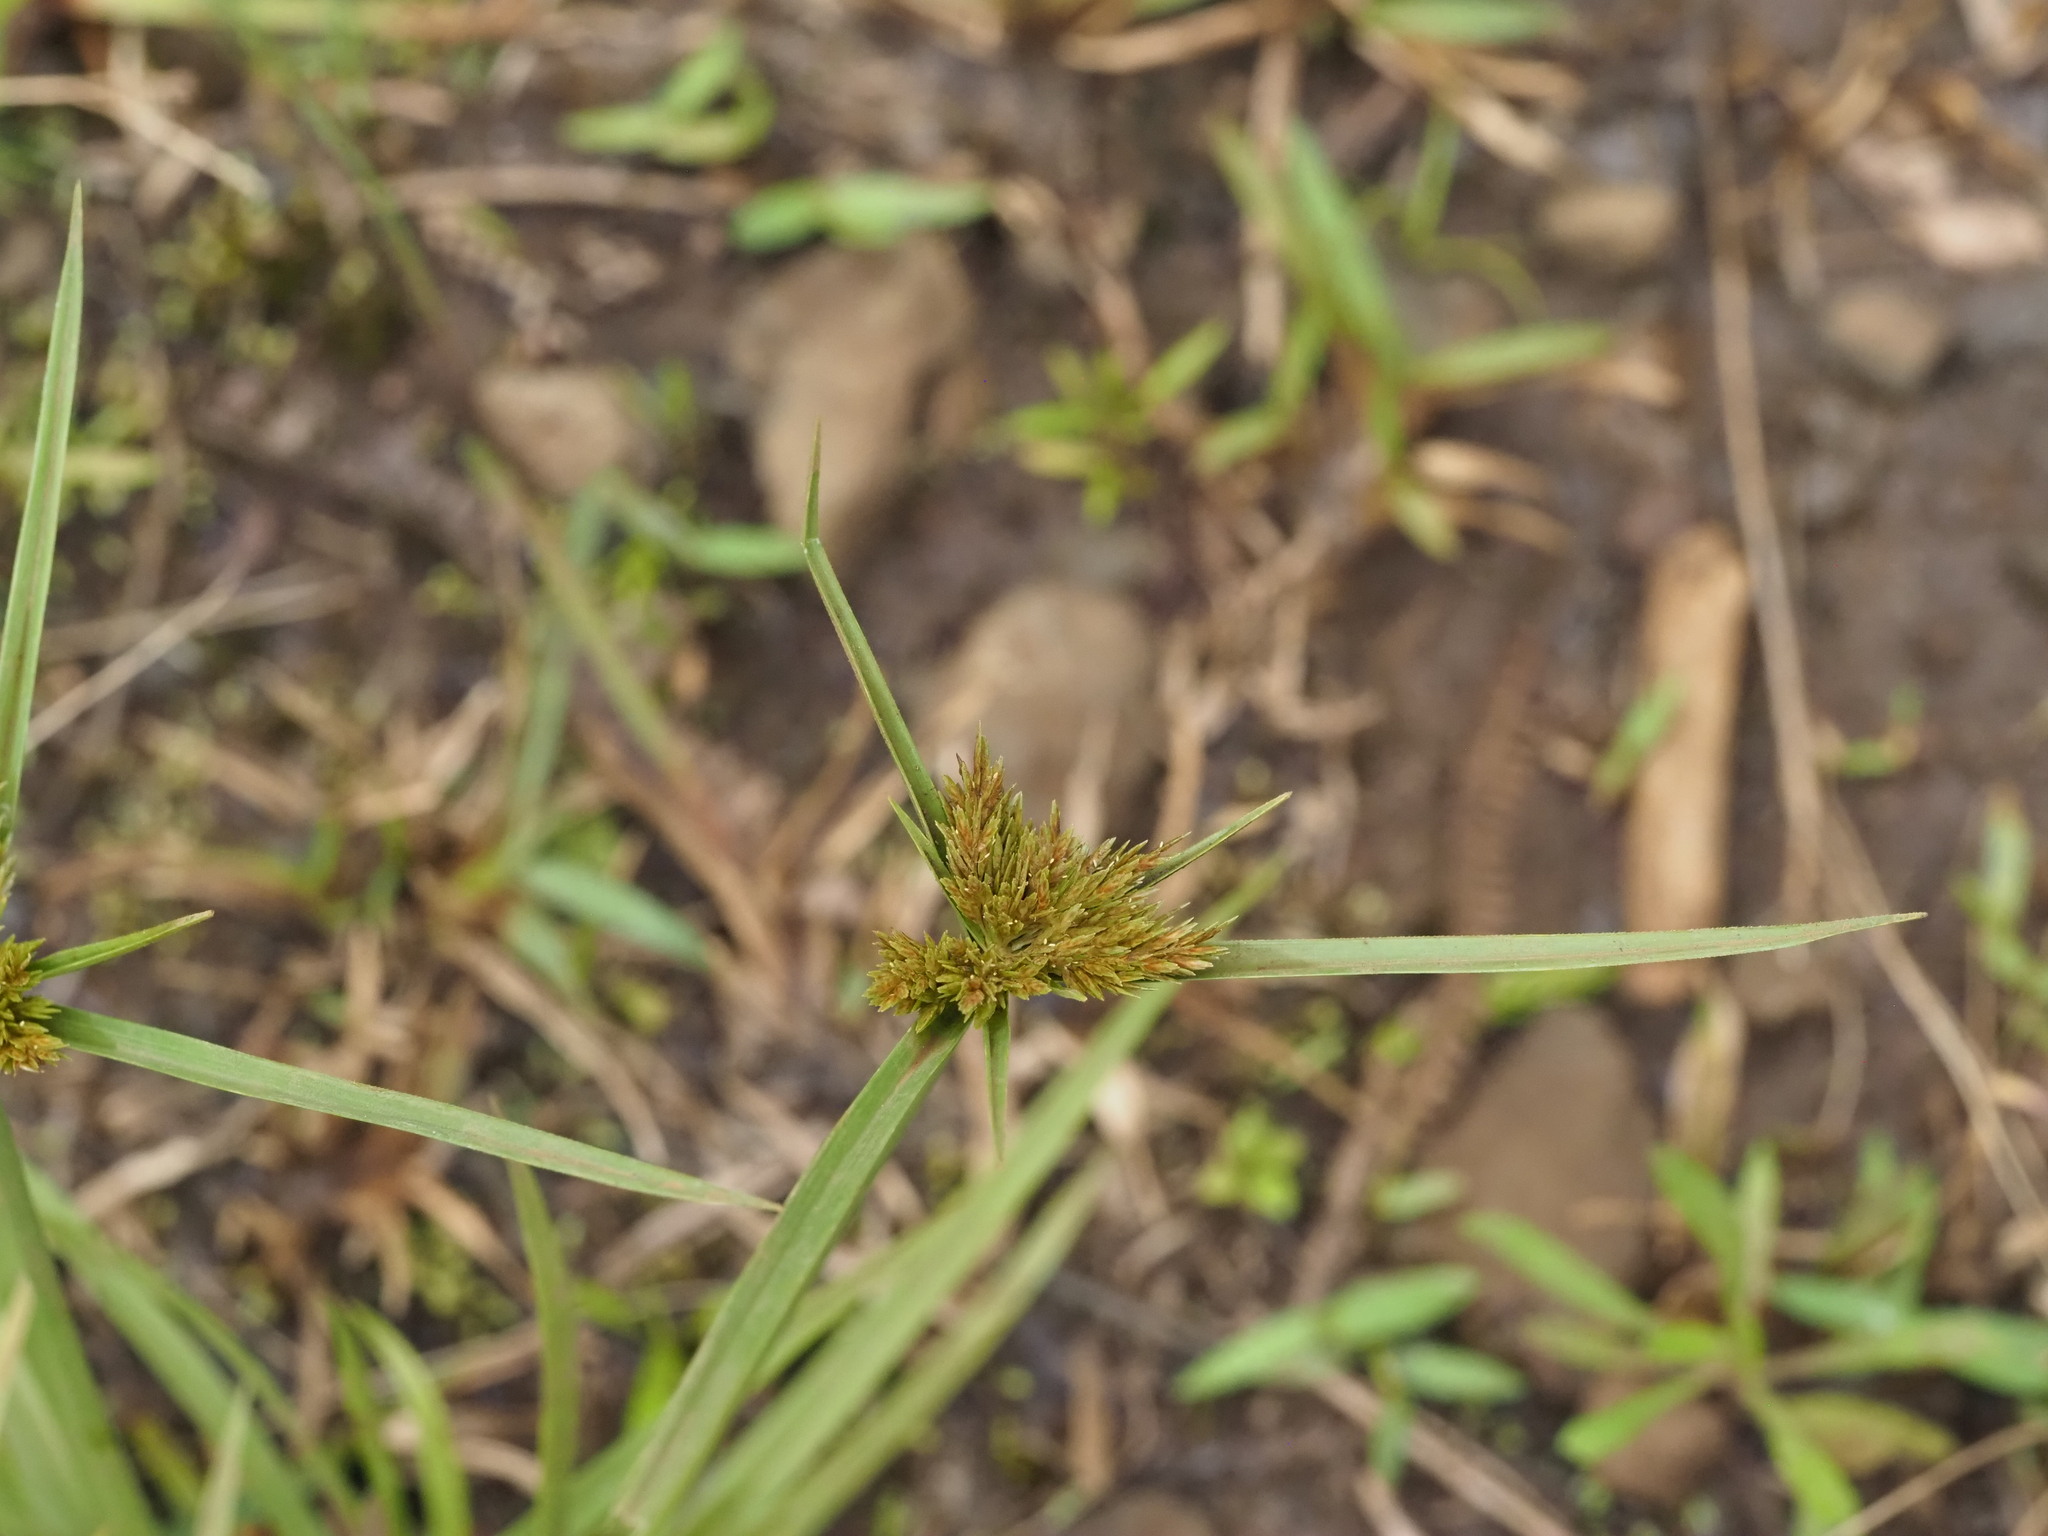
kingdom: Plantae
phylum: Tracheophyta
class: Liliopsida
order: Poales
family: Cyperaceae
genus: Cyperus
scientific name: Cyperus polystachyos
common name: Bunchy flat sedge
